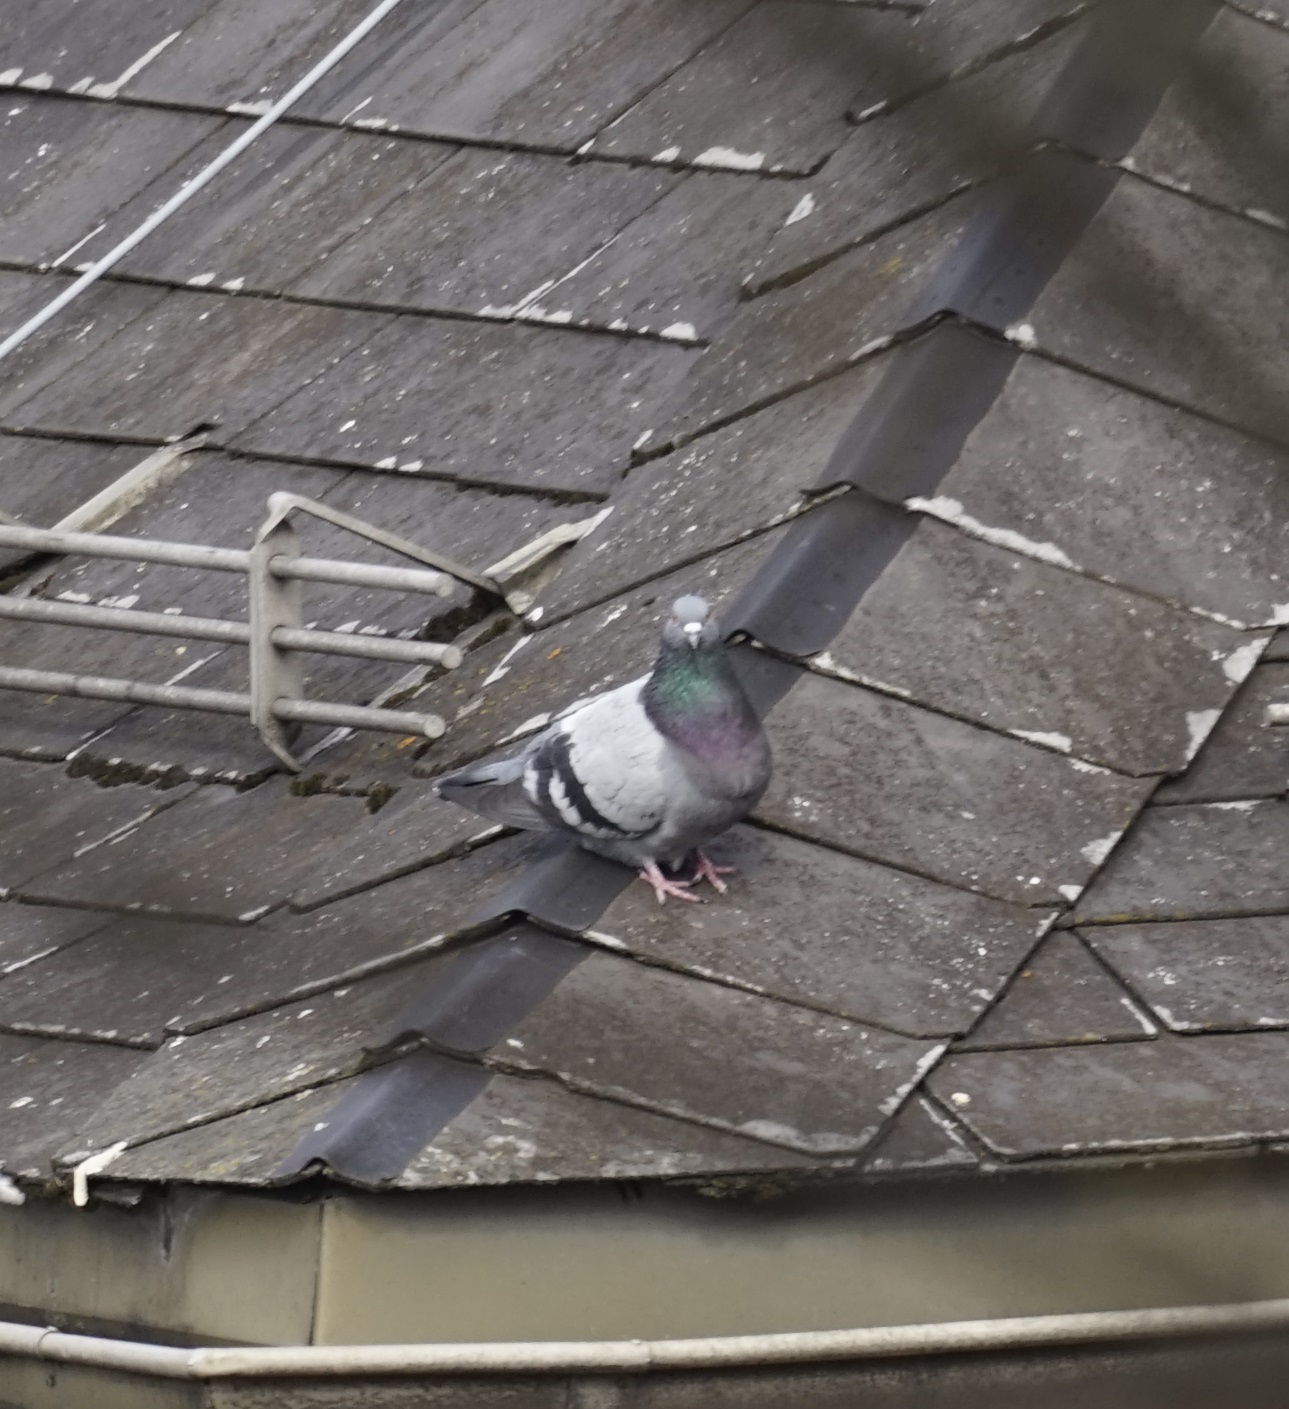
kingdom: Animalia
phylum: Chordata
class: Aves
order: Columbiformes
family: Columbidae
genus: Columba
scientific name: Columba livia
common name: Rock pigeon
